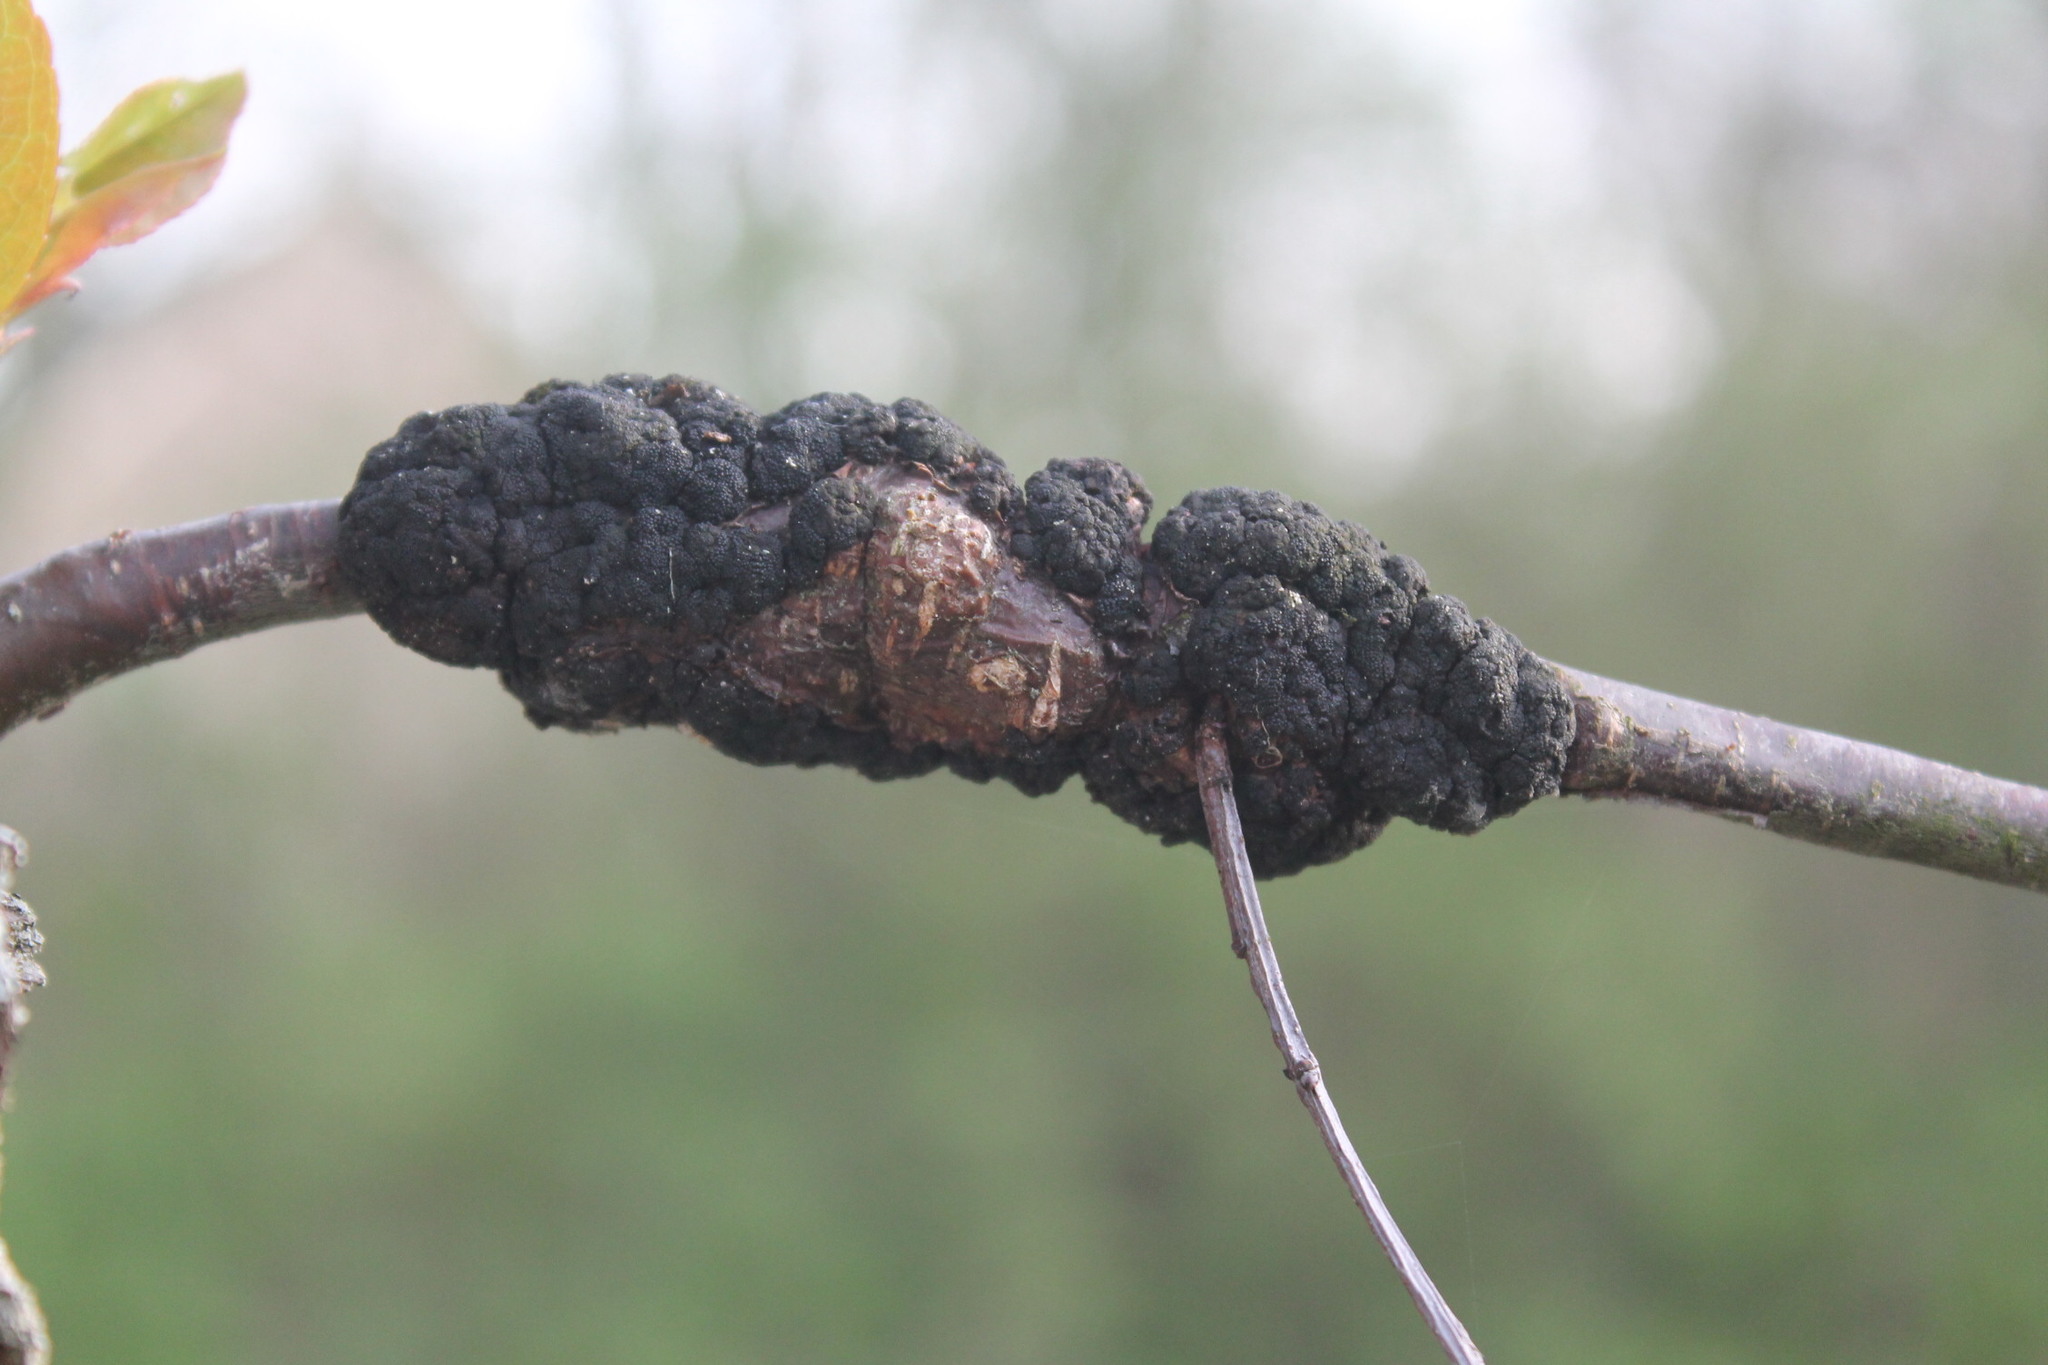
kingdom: Fungi
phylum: Ascomycota
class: Dothideomycetes
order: Venturiales
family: Venturiaceae
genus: Apiosporina
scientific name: Apiosporina morbosa
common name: Black knot
